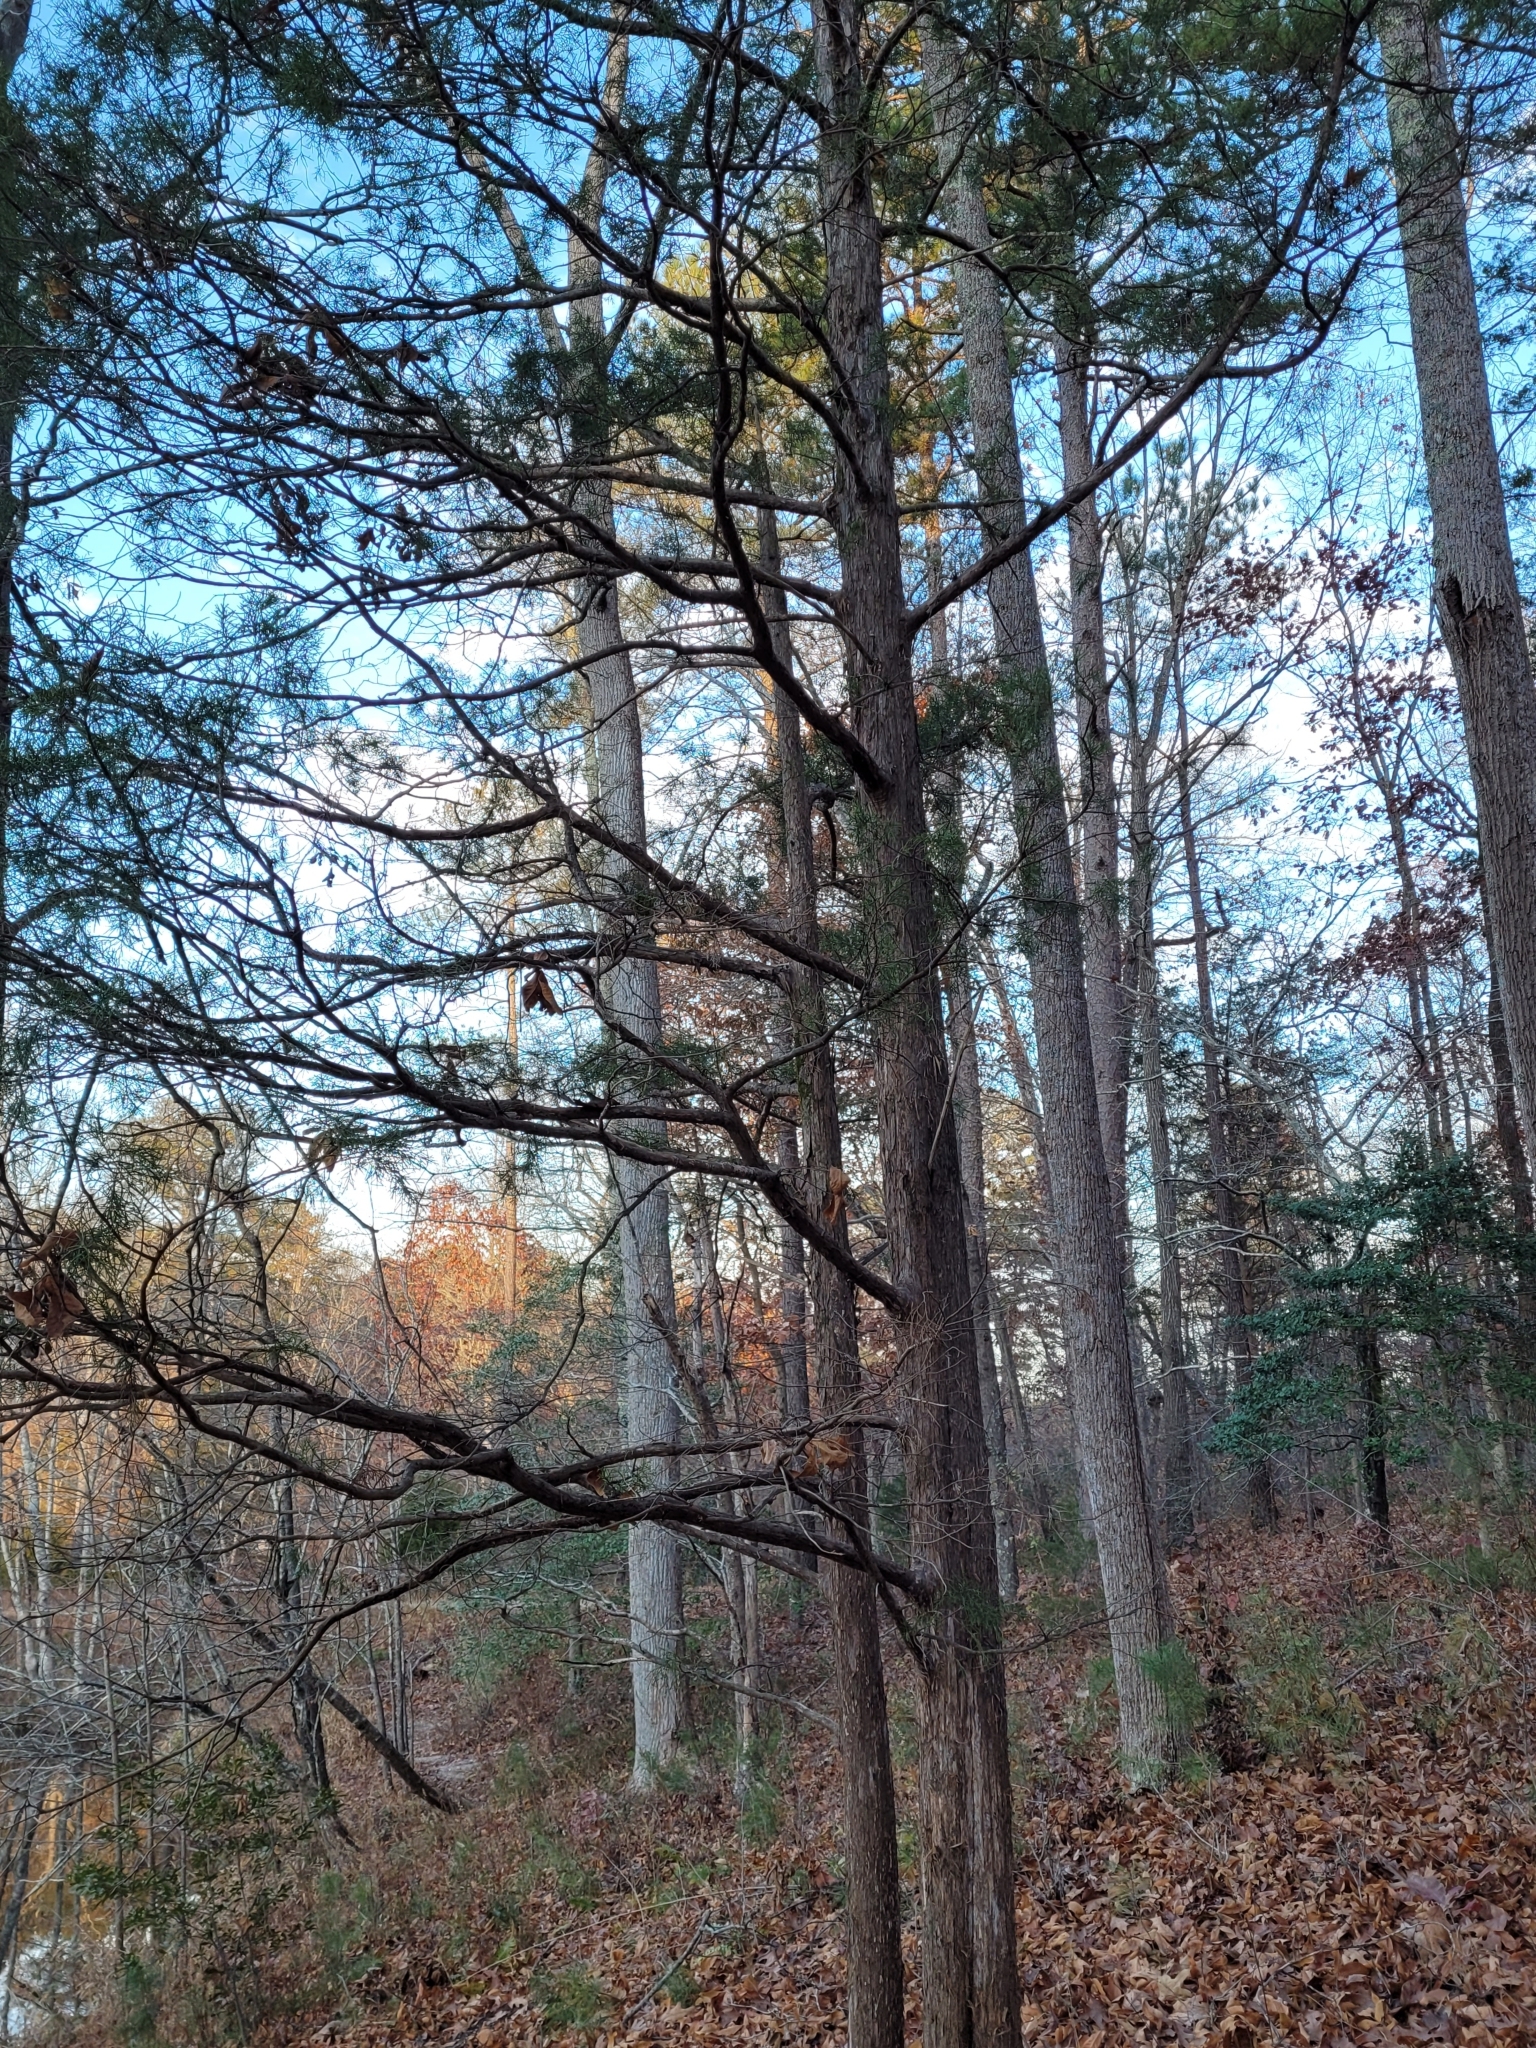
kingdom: Plantae
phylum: Tracheophyta
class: Pinopsida
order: Pinales
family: Cupressaceae
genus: Juniperus
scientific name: Juniperus virginiana
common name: Red juniper
